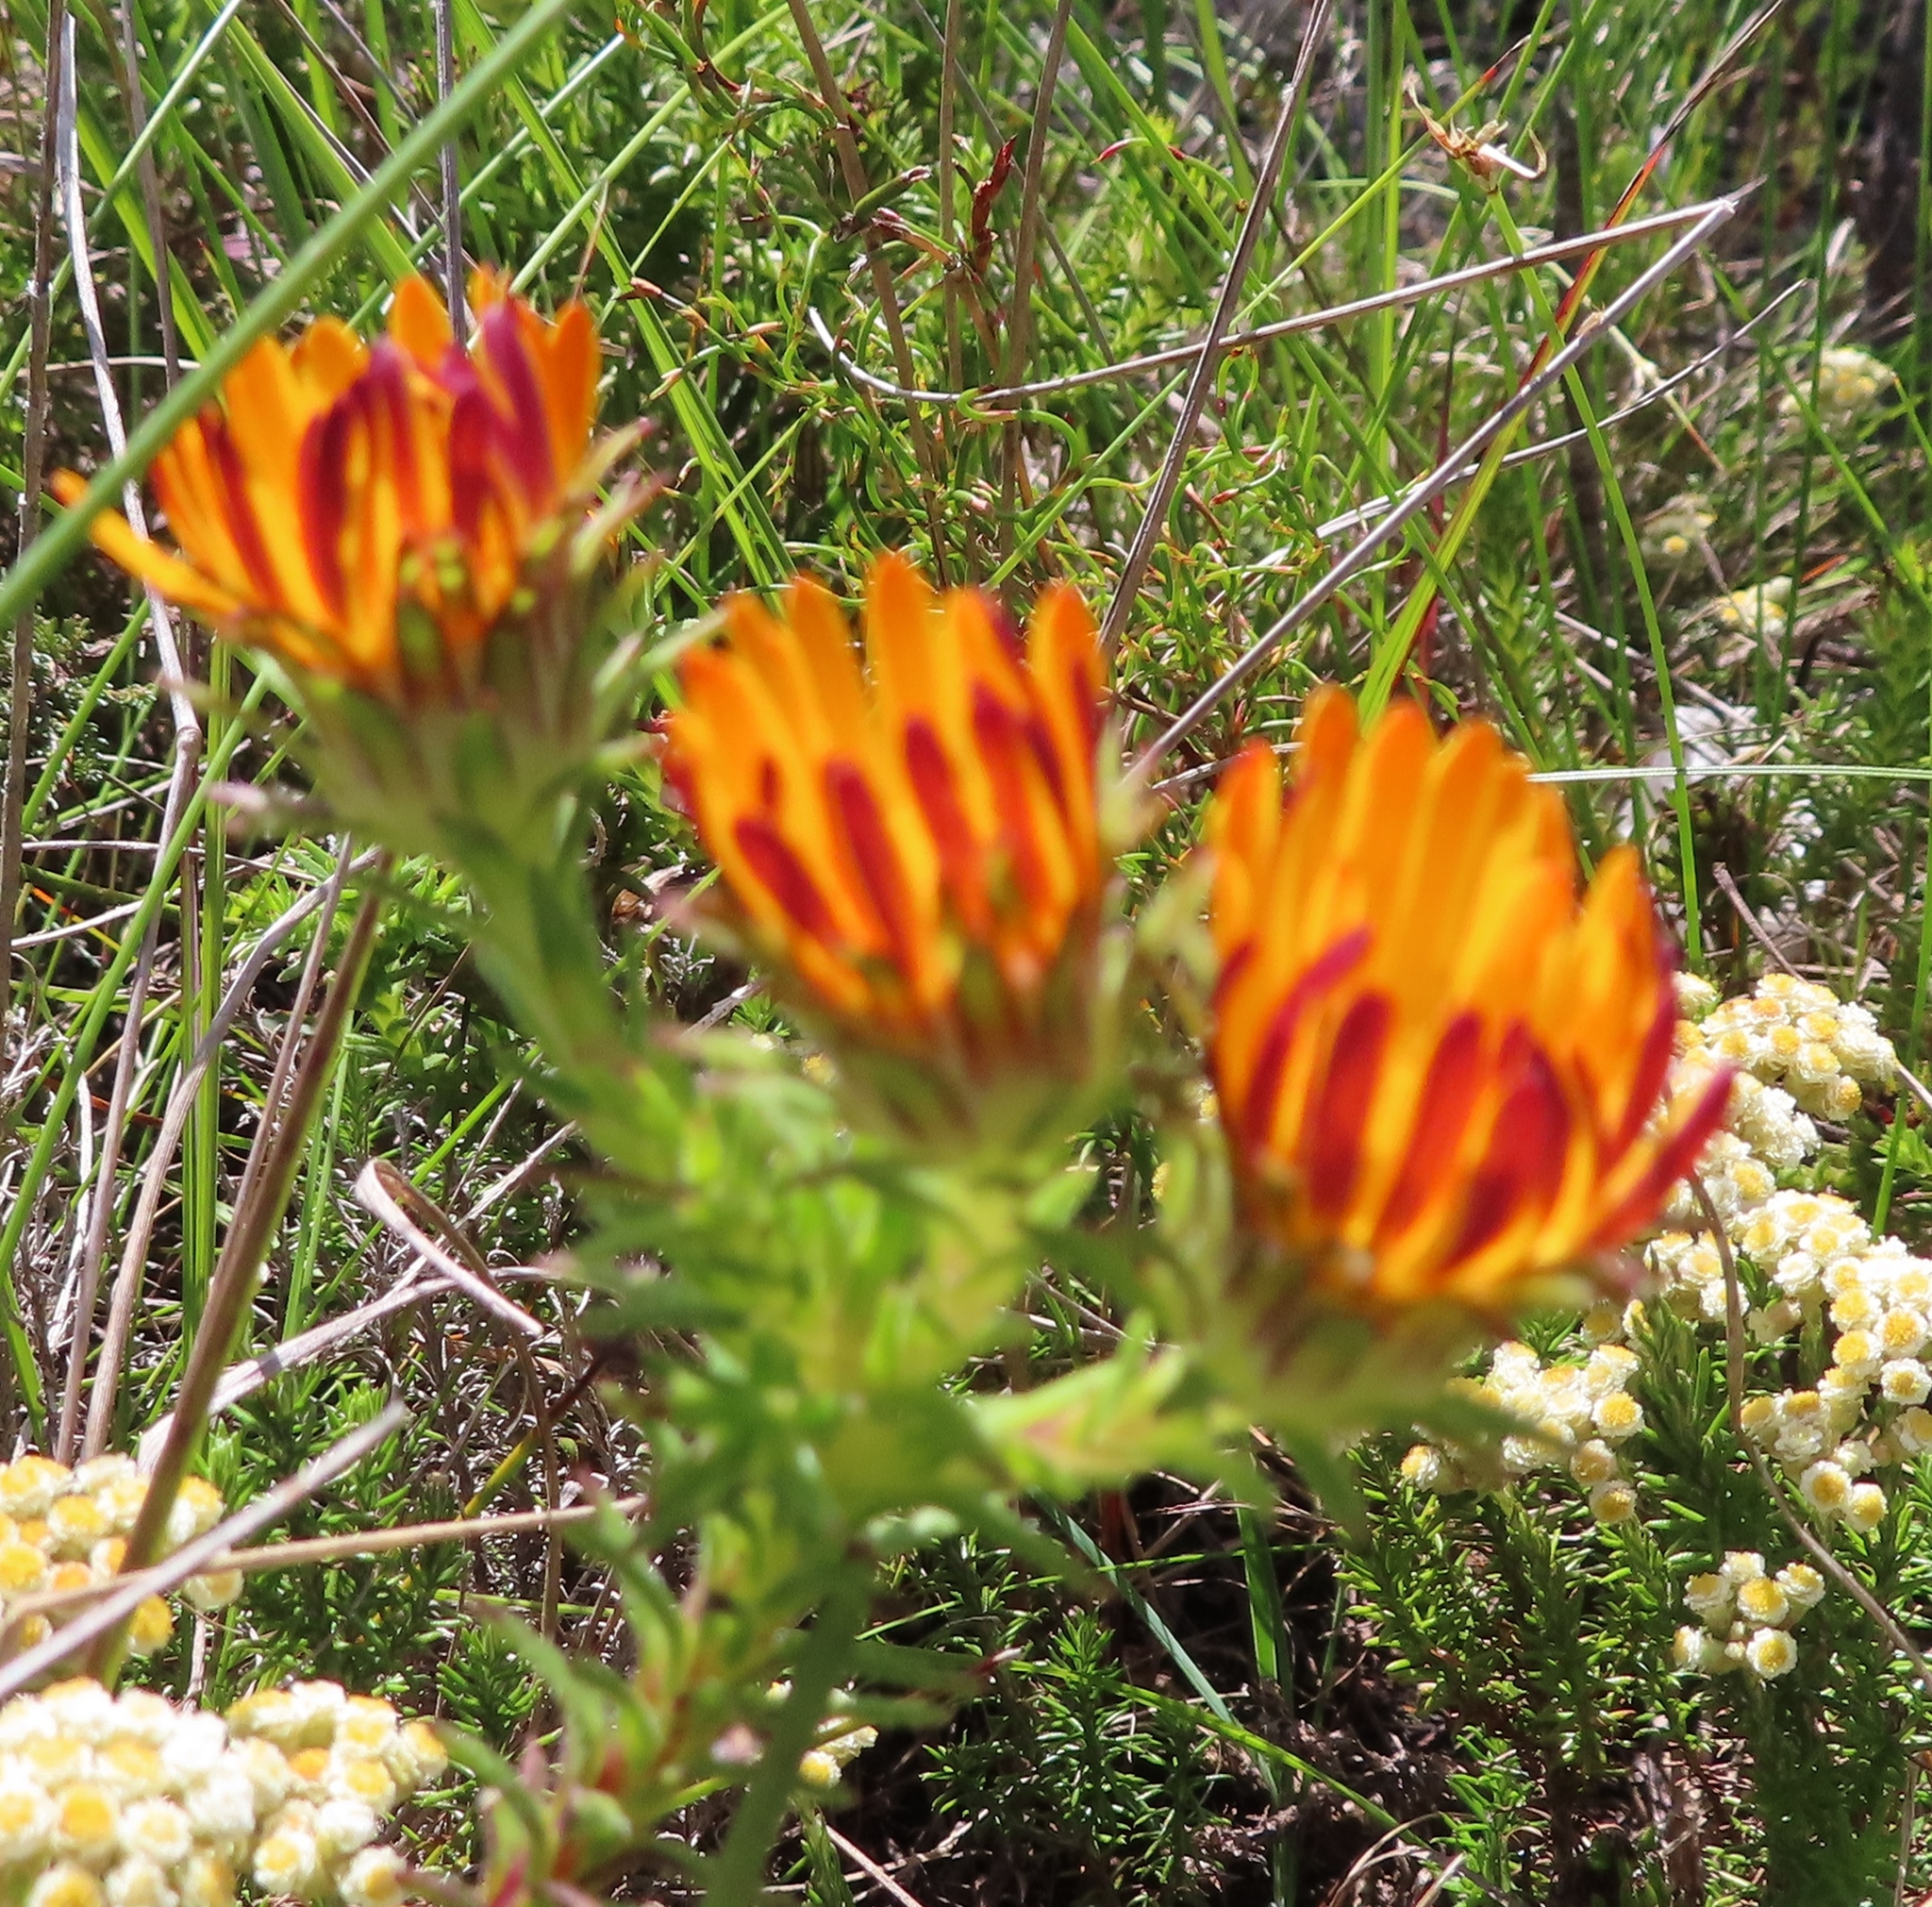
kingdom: Plantae
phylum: Tracheophyta
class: Magnoliopsida
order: Asterales
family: Asteraceae
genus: Oedera
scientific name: Oedera imbricata
